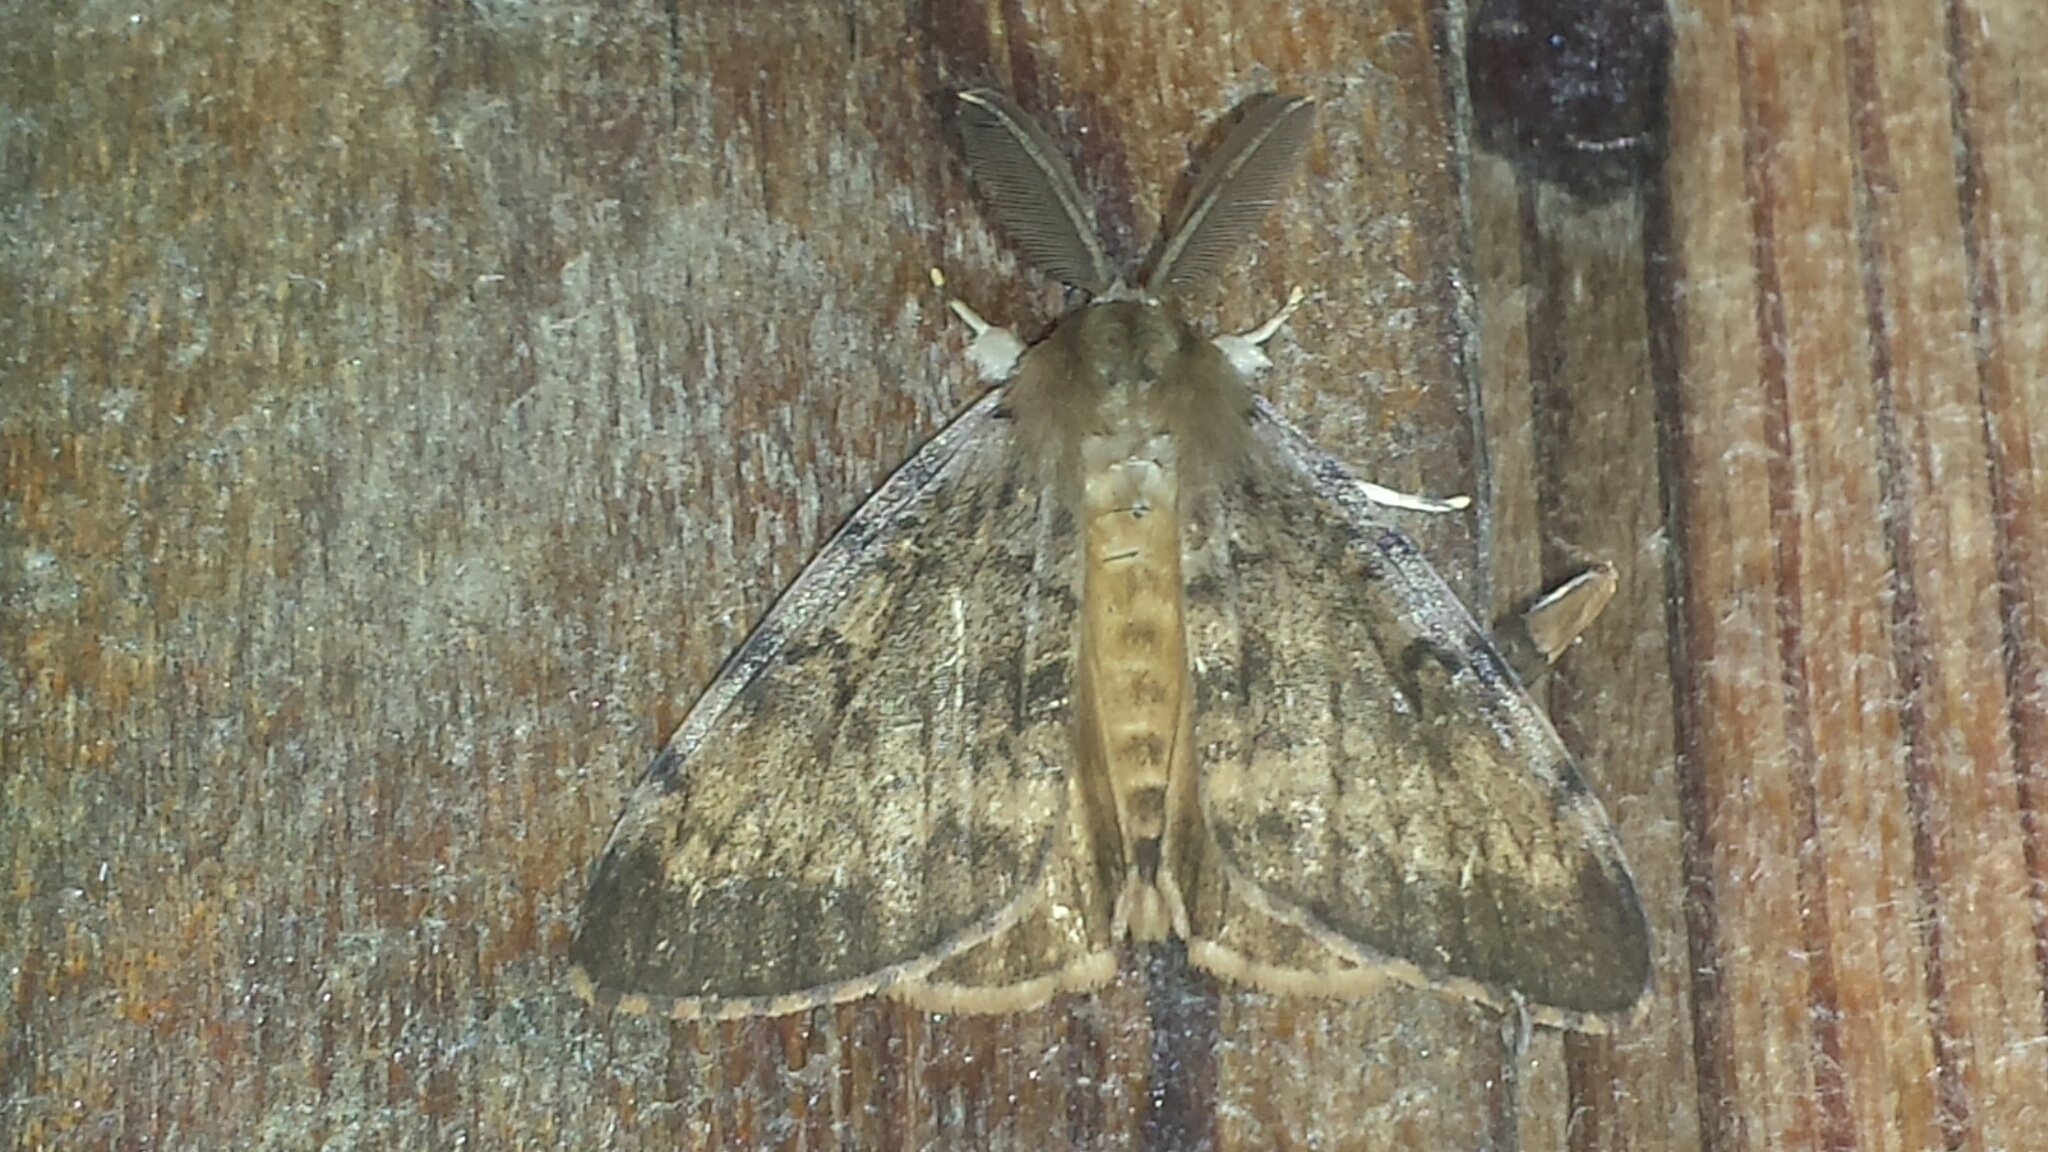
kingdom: Animalia
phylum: Arthropoda
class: Insecta
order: Lepidoptera
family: Erebidae
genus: Lymantria
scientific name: Lymantria dispar
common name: Gypsy moth
